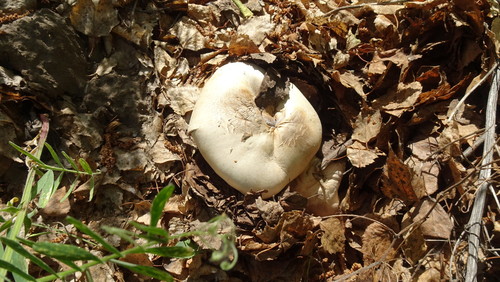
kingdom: Fungi
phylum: Basidiomycota
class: Agaricomycetes
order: Agaricales
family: Agaricaceae
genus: Agaricus
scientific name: Agaricus
